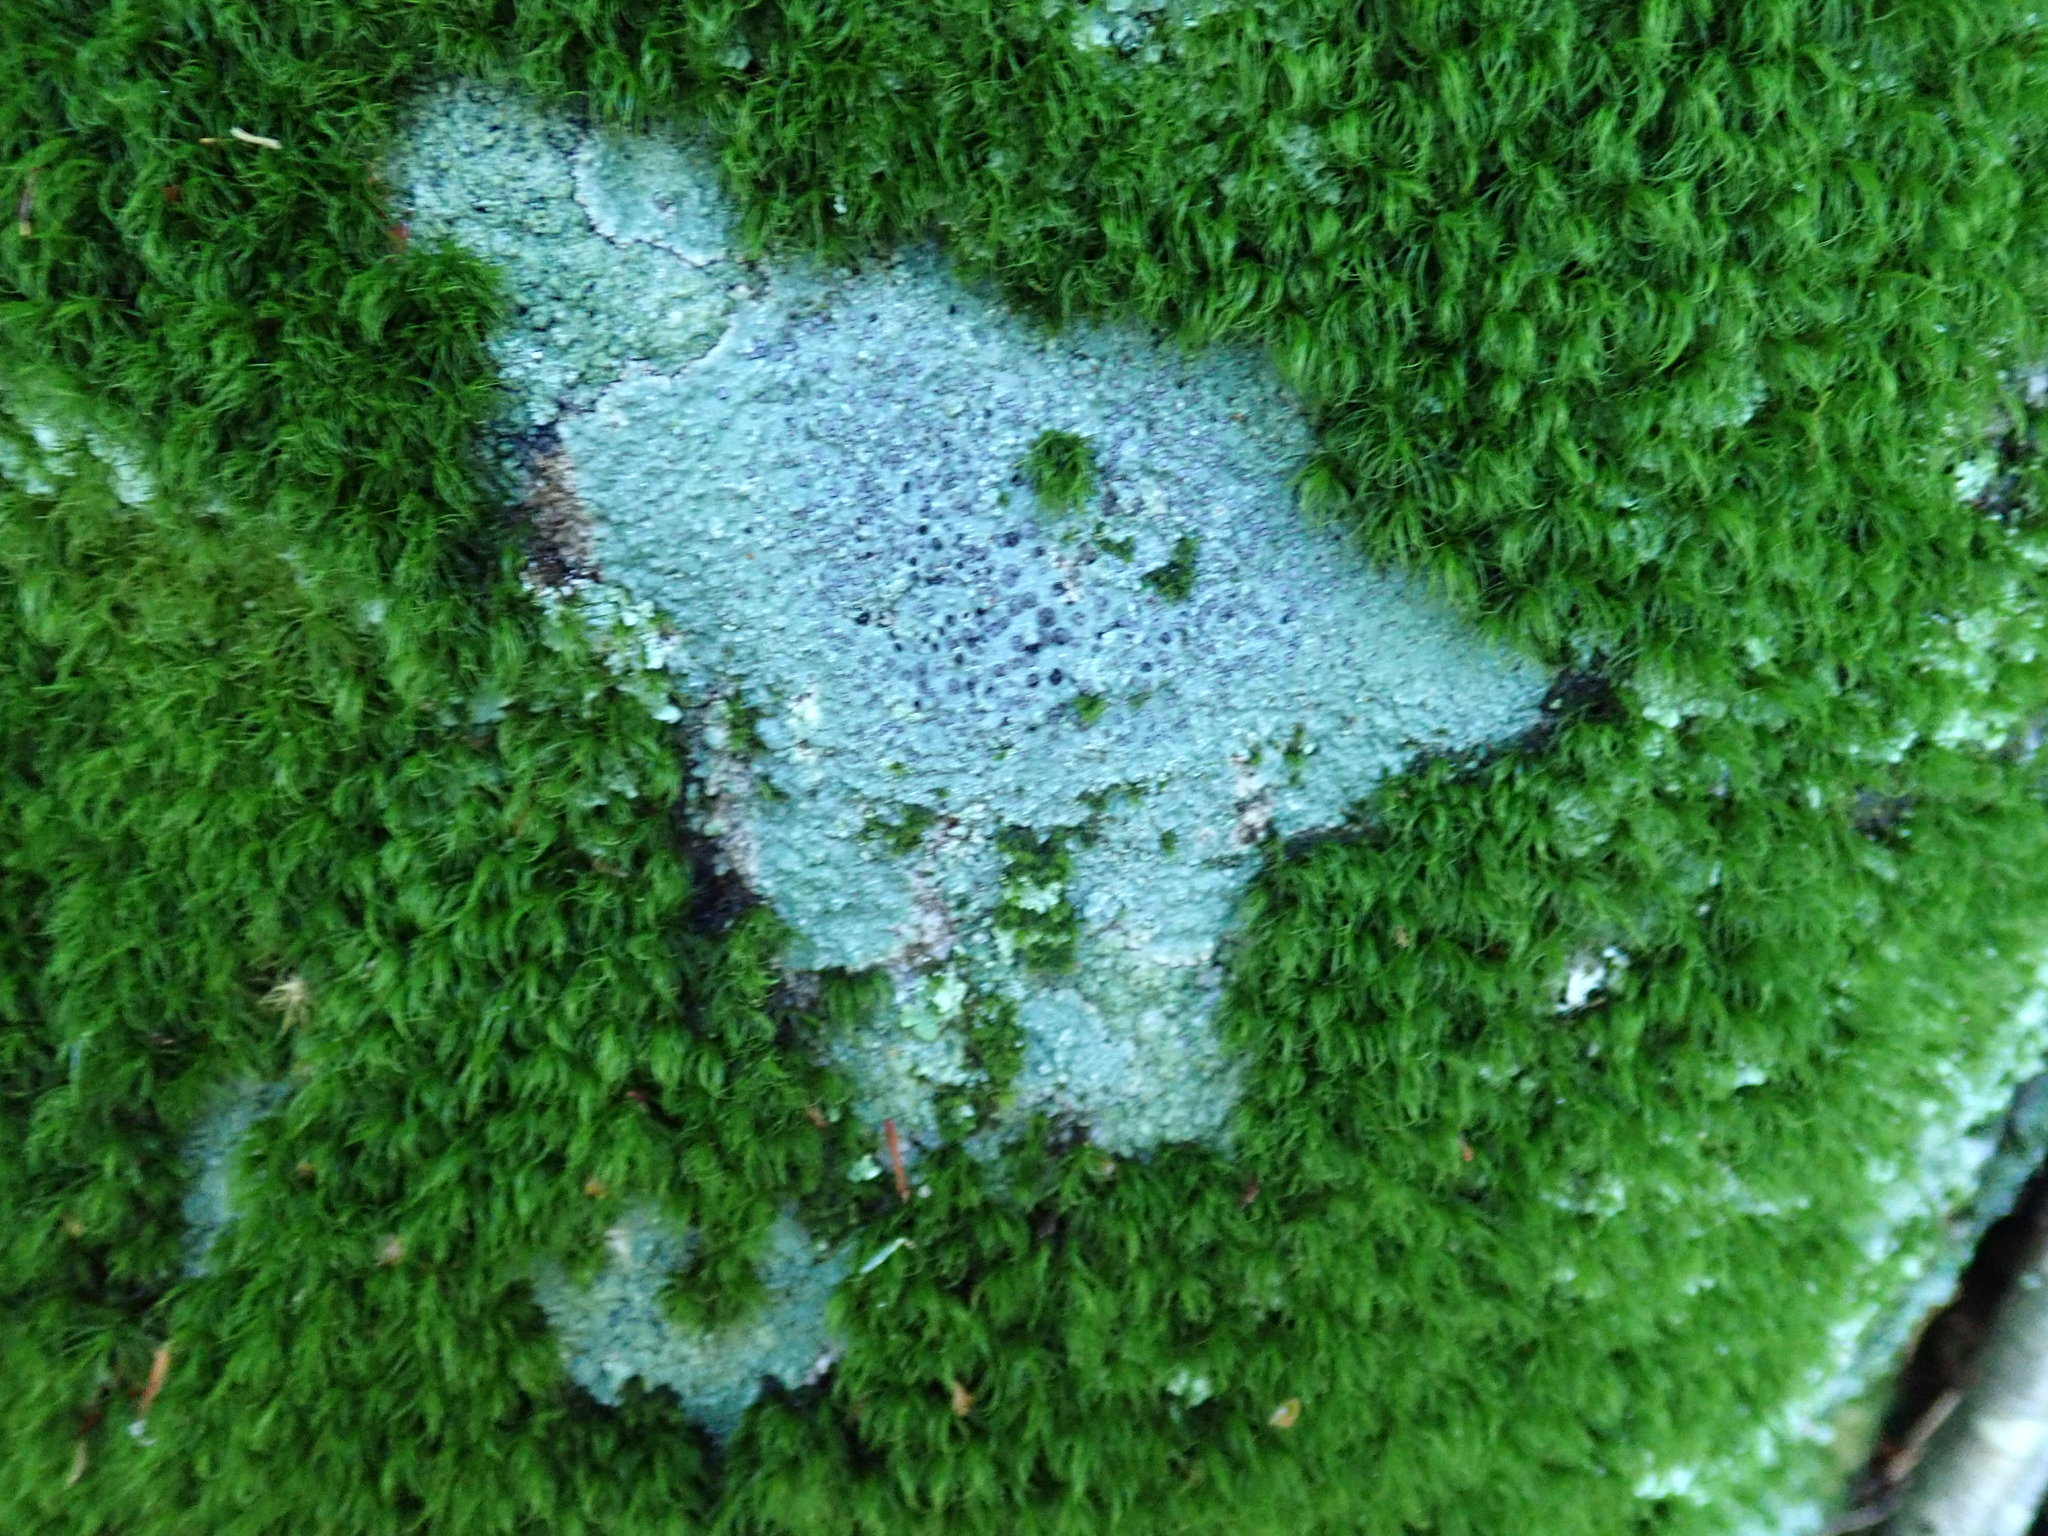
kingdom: Fungi
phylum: Ascomycota
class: Lecanoromycetes
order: Lecideales
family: Lecideaceae
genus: Porpidia
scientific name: Porpidia albocaerulescens
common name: Smokey-eyed boulder lichen
